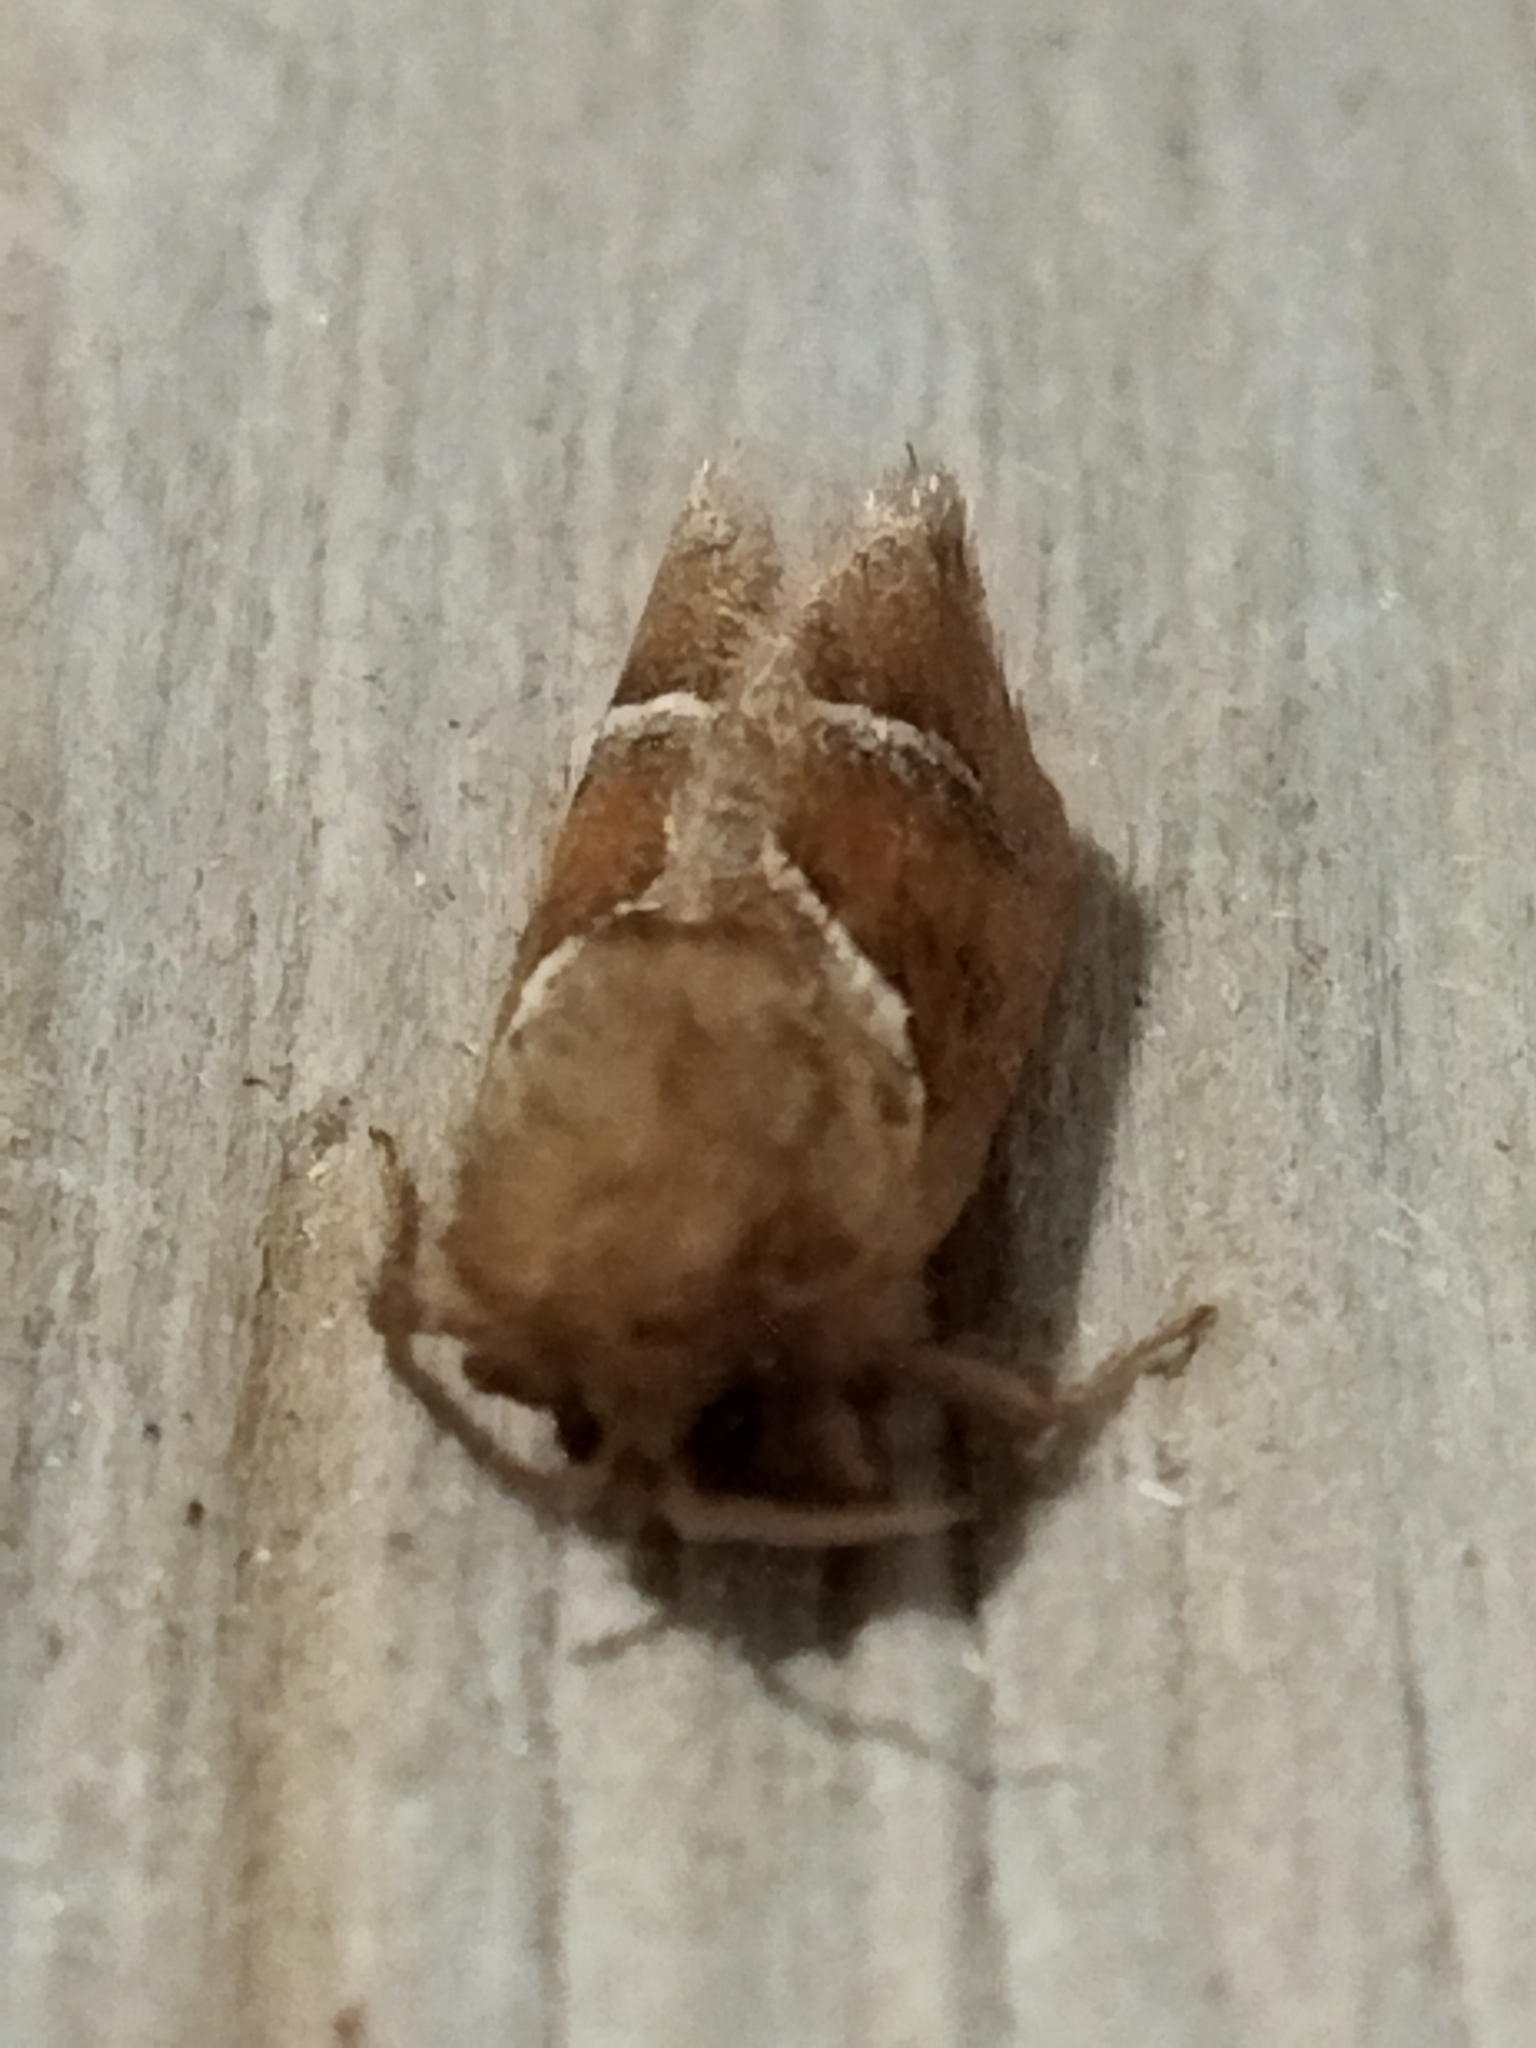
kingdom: Animalia
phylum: Arthropoda
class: Insecta
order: Lepidoptera
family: Hepialidae
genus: Triodia
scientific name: Triodia sylvina
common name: Orange swift
